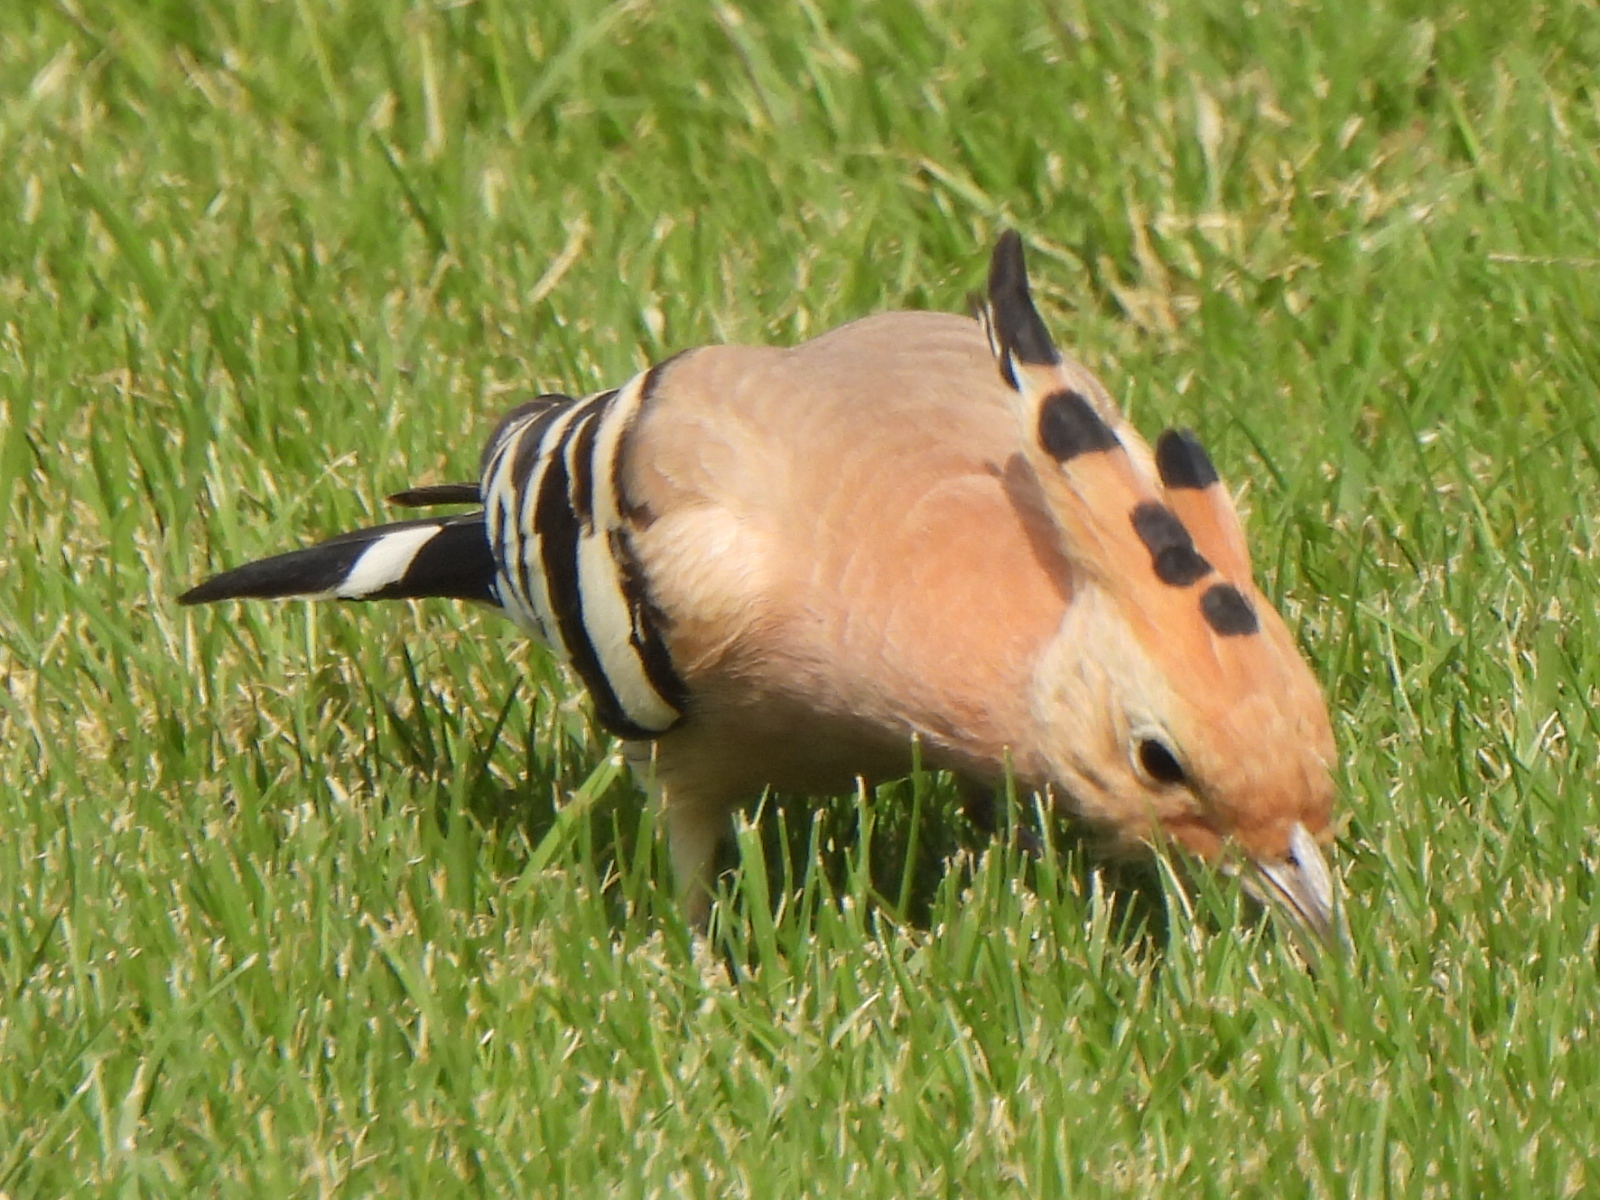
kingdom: Animalia
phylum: Chordata
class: Aves
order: Bucerotiformes
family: Upupidae
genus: Upupa
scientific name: Upupa epops
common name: Eurasian hoopoe
